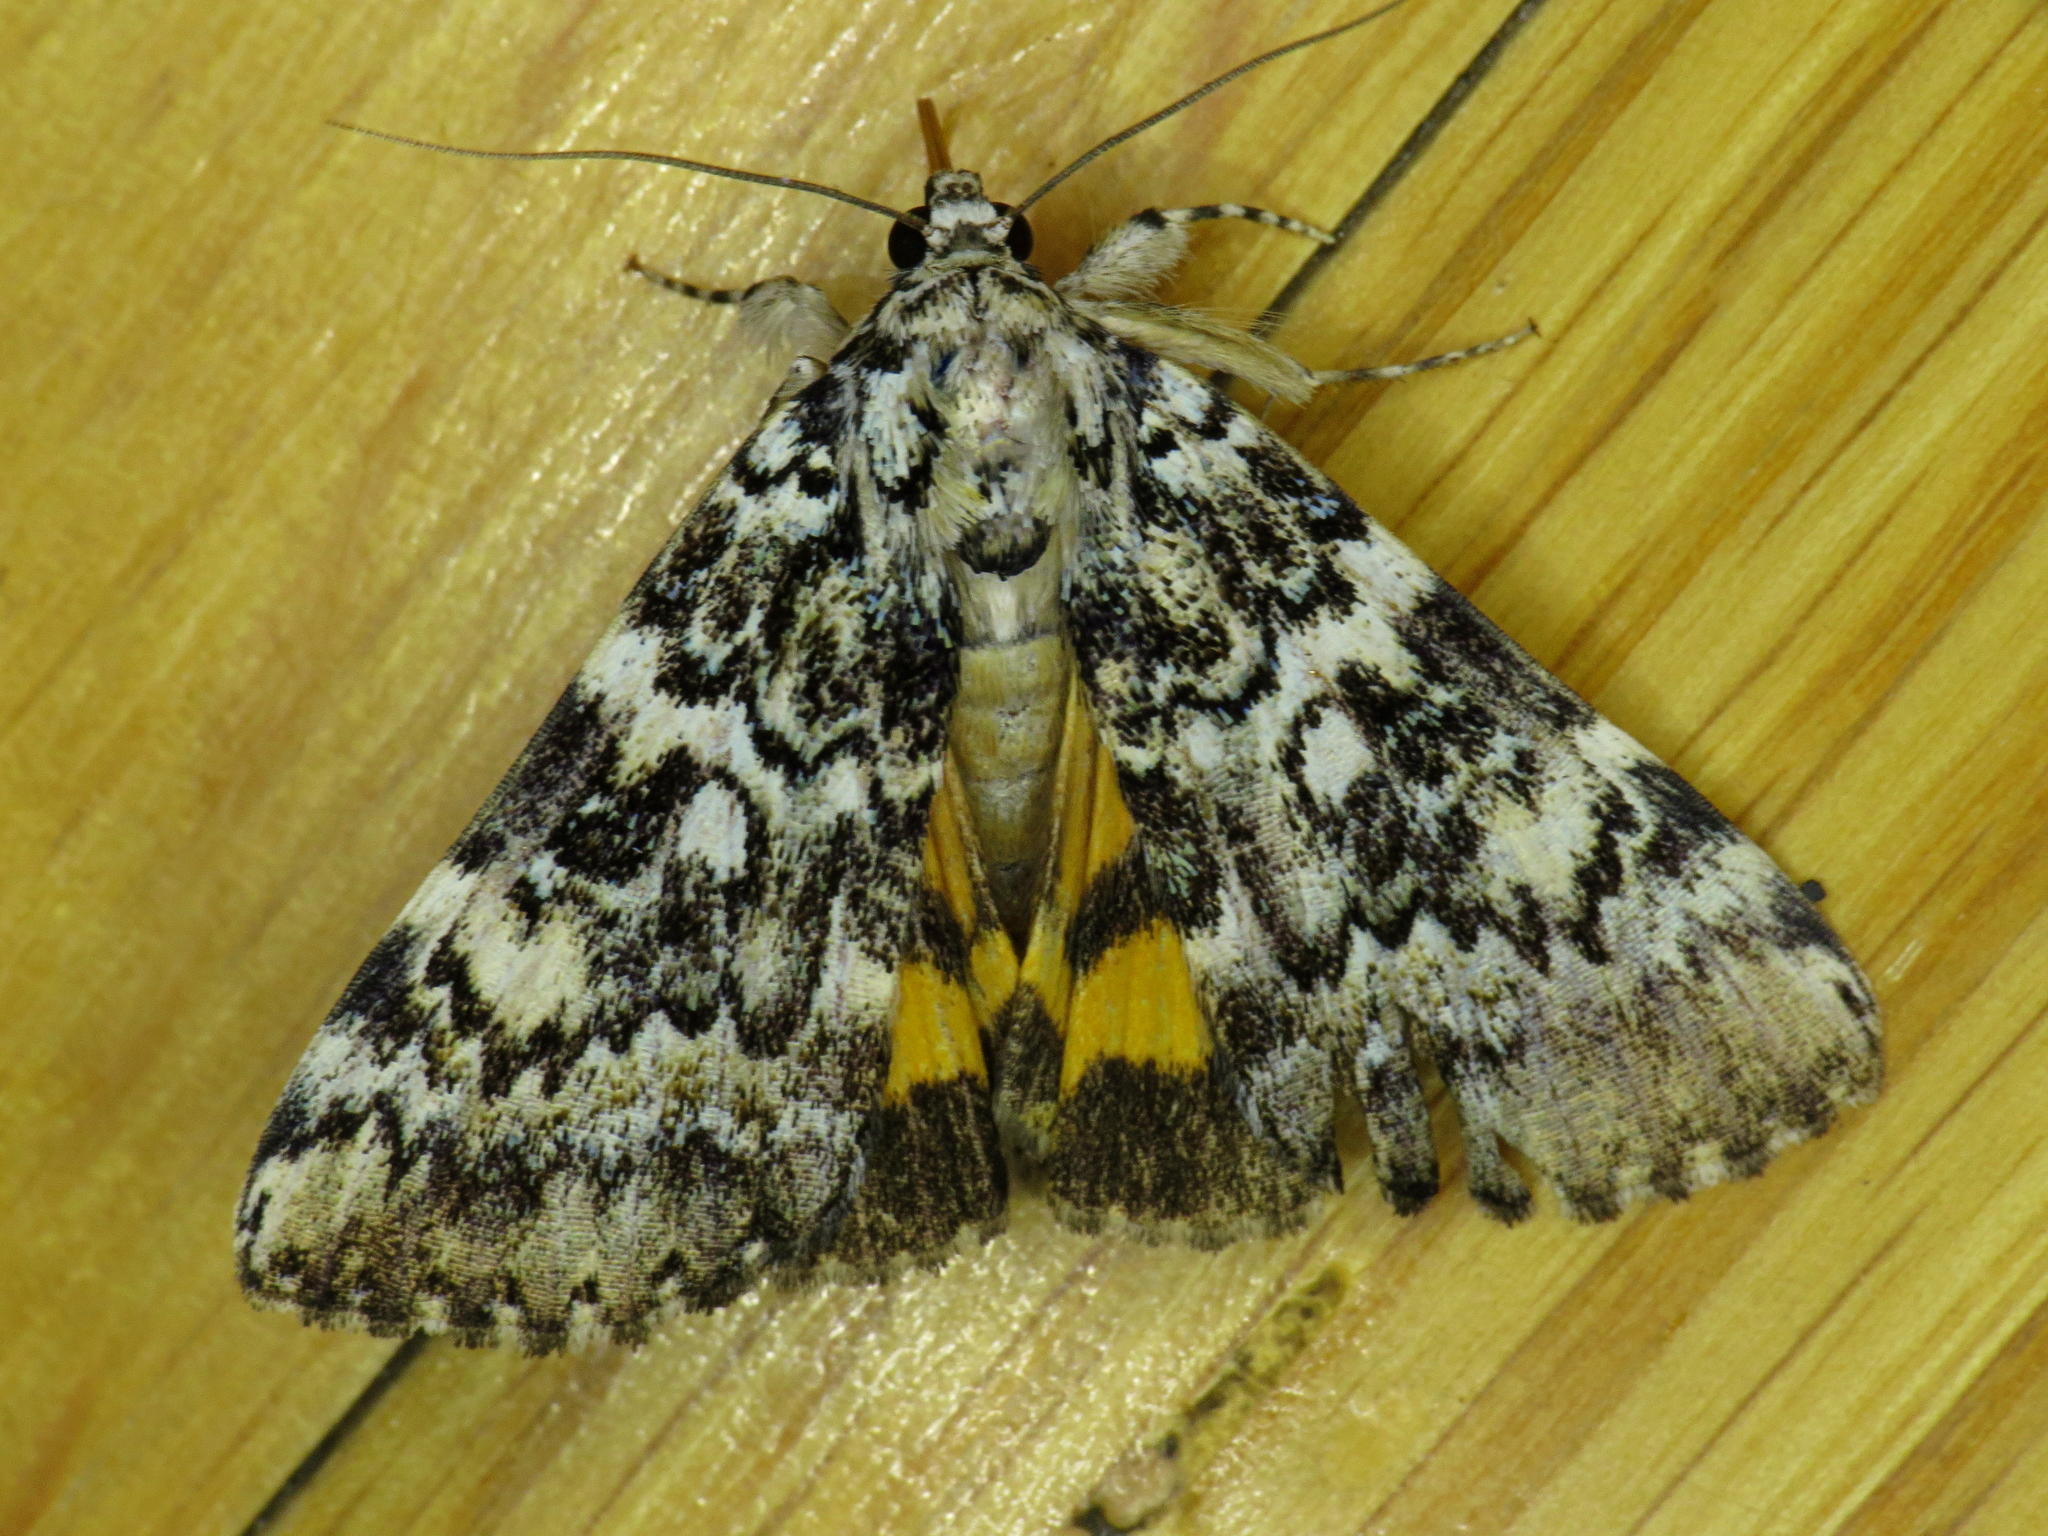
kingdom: Animalia
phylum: Arthropoda
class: Insecta
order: Lepidoptera
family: Erebidae
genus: Catocala
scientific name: Catocala connubialis
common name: Connubial underwing
